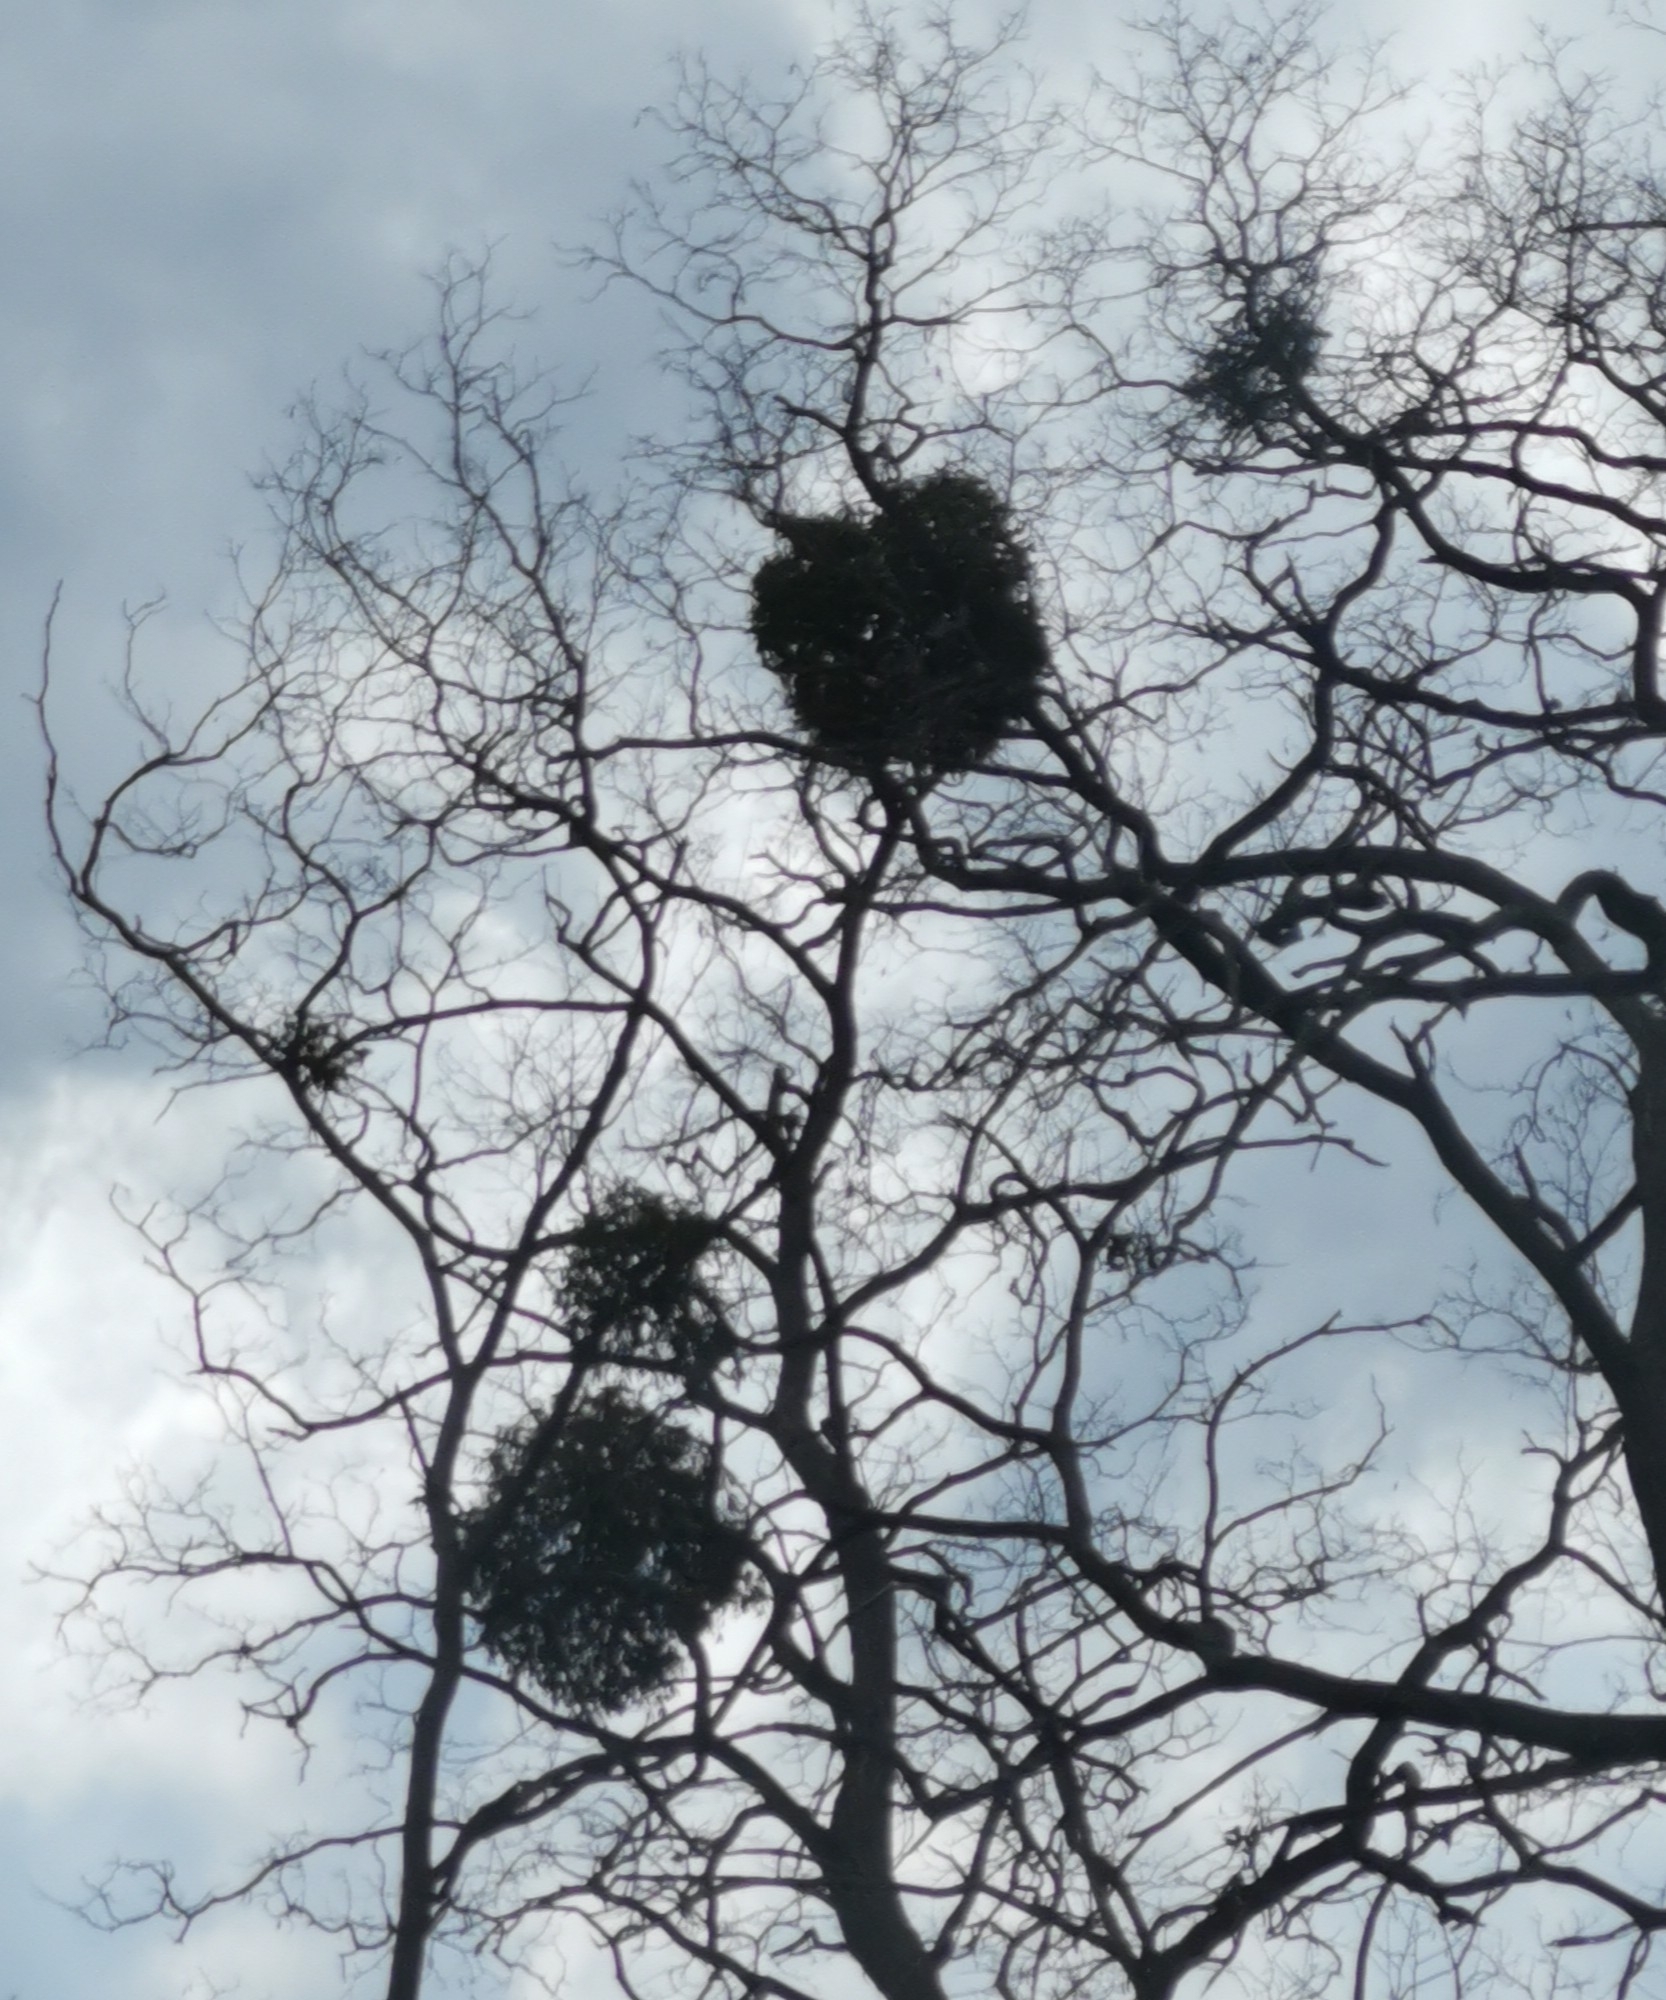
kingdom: Plantae
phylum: Tracheophyta
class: Magnoliopsida
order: Santalales
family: Viscaceae
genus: Viscum
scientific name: Viscum album
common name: Mistletoe
